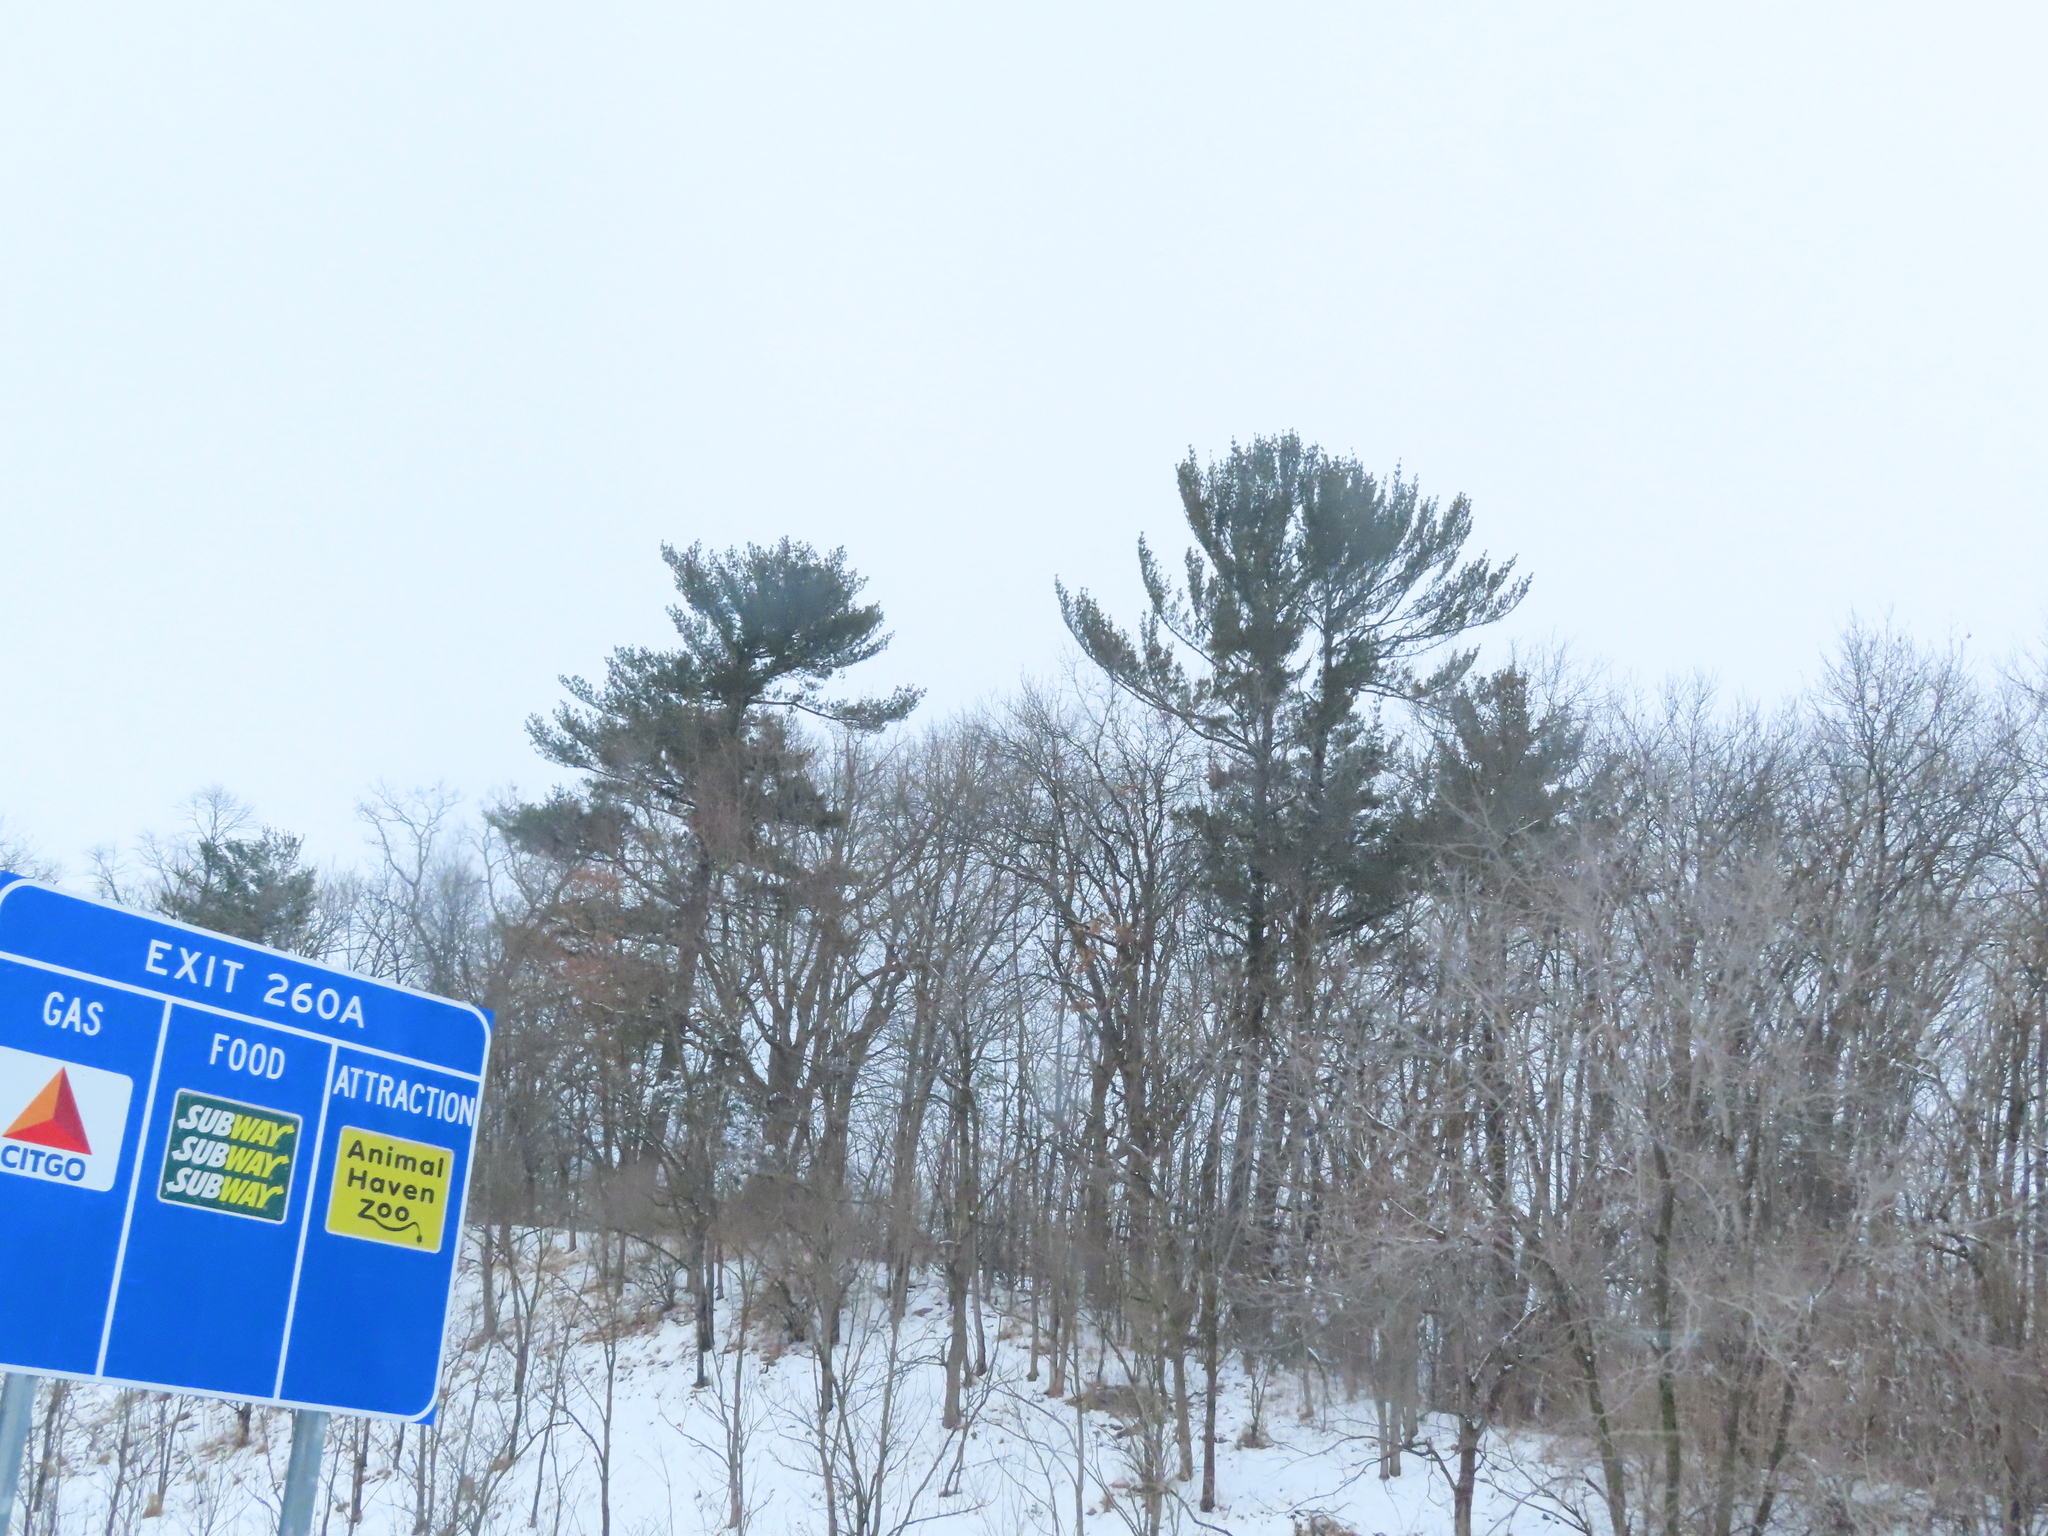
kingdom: Plantae
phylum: Tracheophyta
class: Pinopsida
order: Pinales
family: Pinaceae
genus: Pinus
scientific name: Pinus strobus
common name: Weymouth pine
